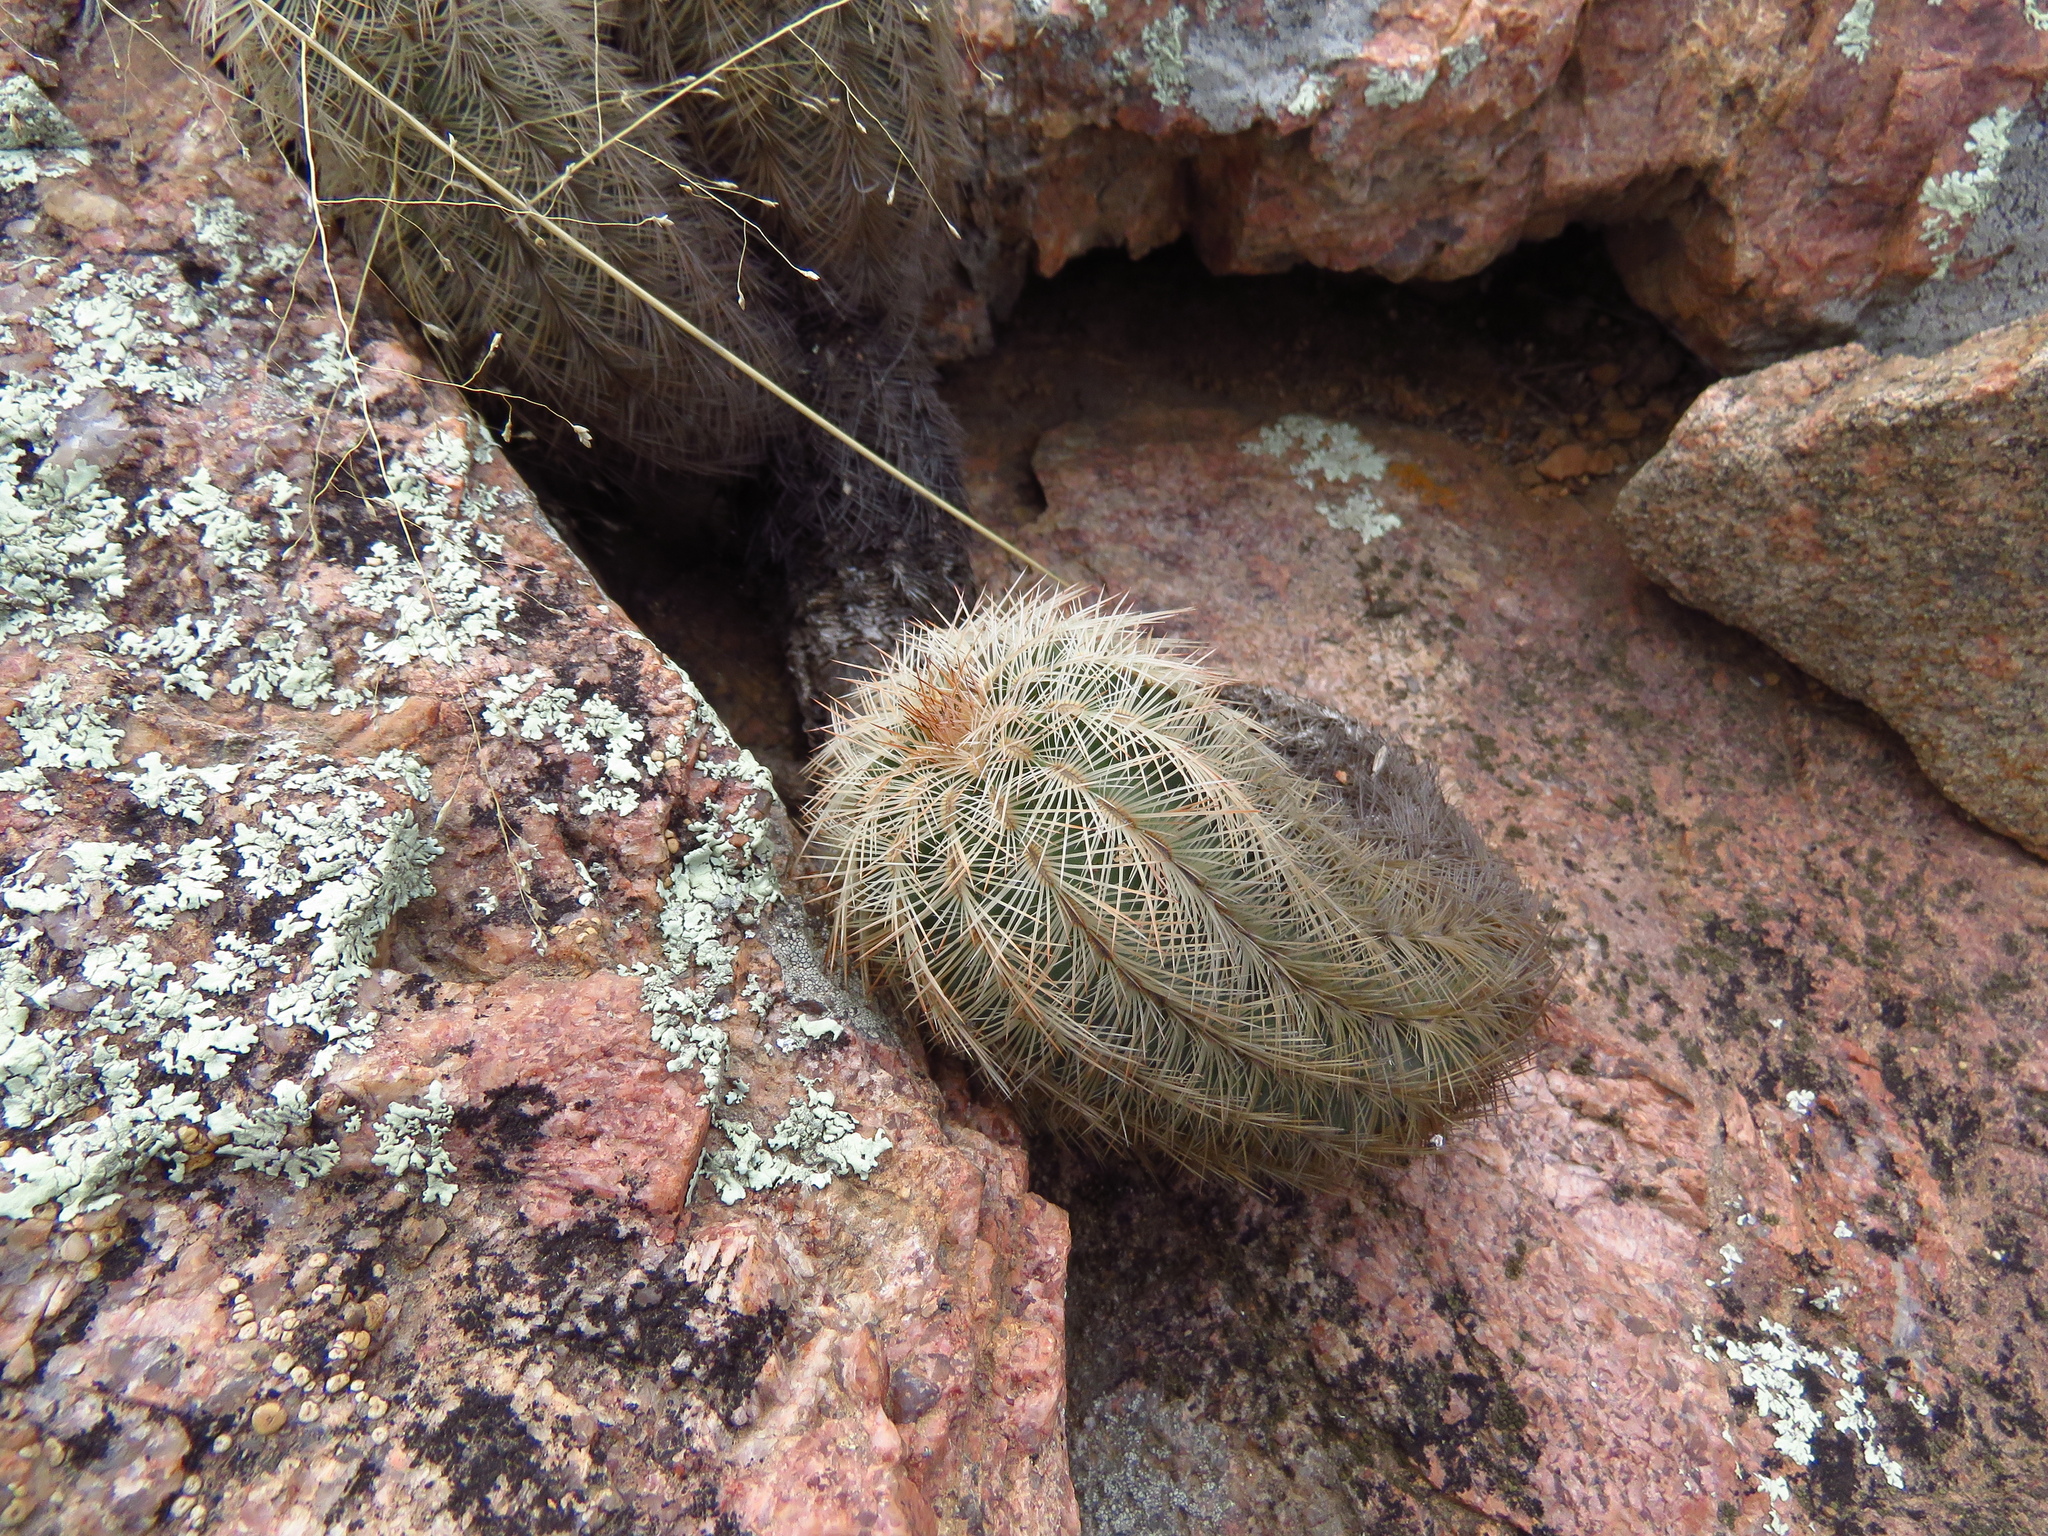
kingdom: Plantae
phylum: Tracheophyta
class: Magnoliopsida
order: Caryophyllales
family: Cactaceae
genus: Echinocereus
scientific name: Echinocereus reichenbachii
